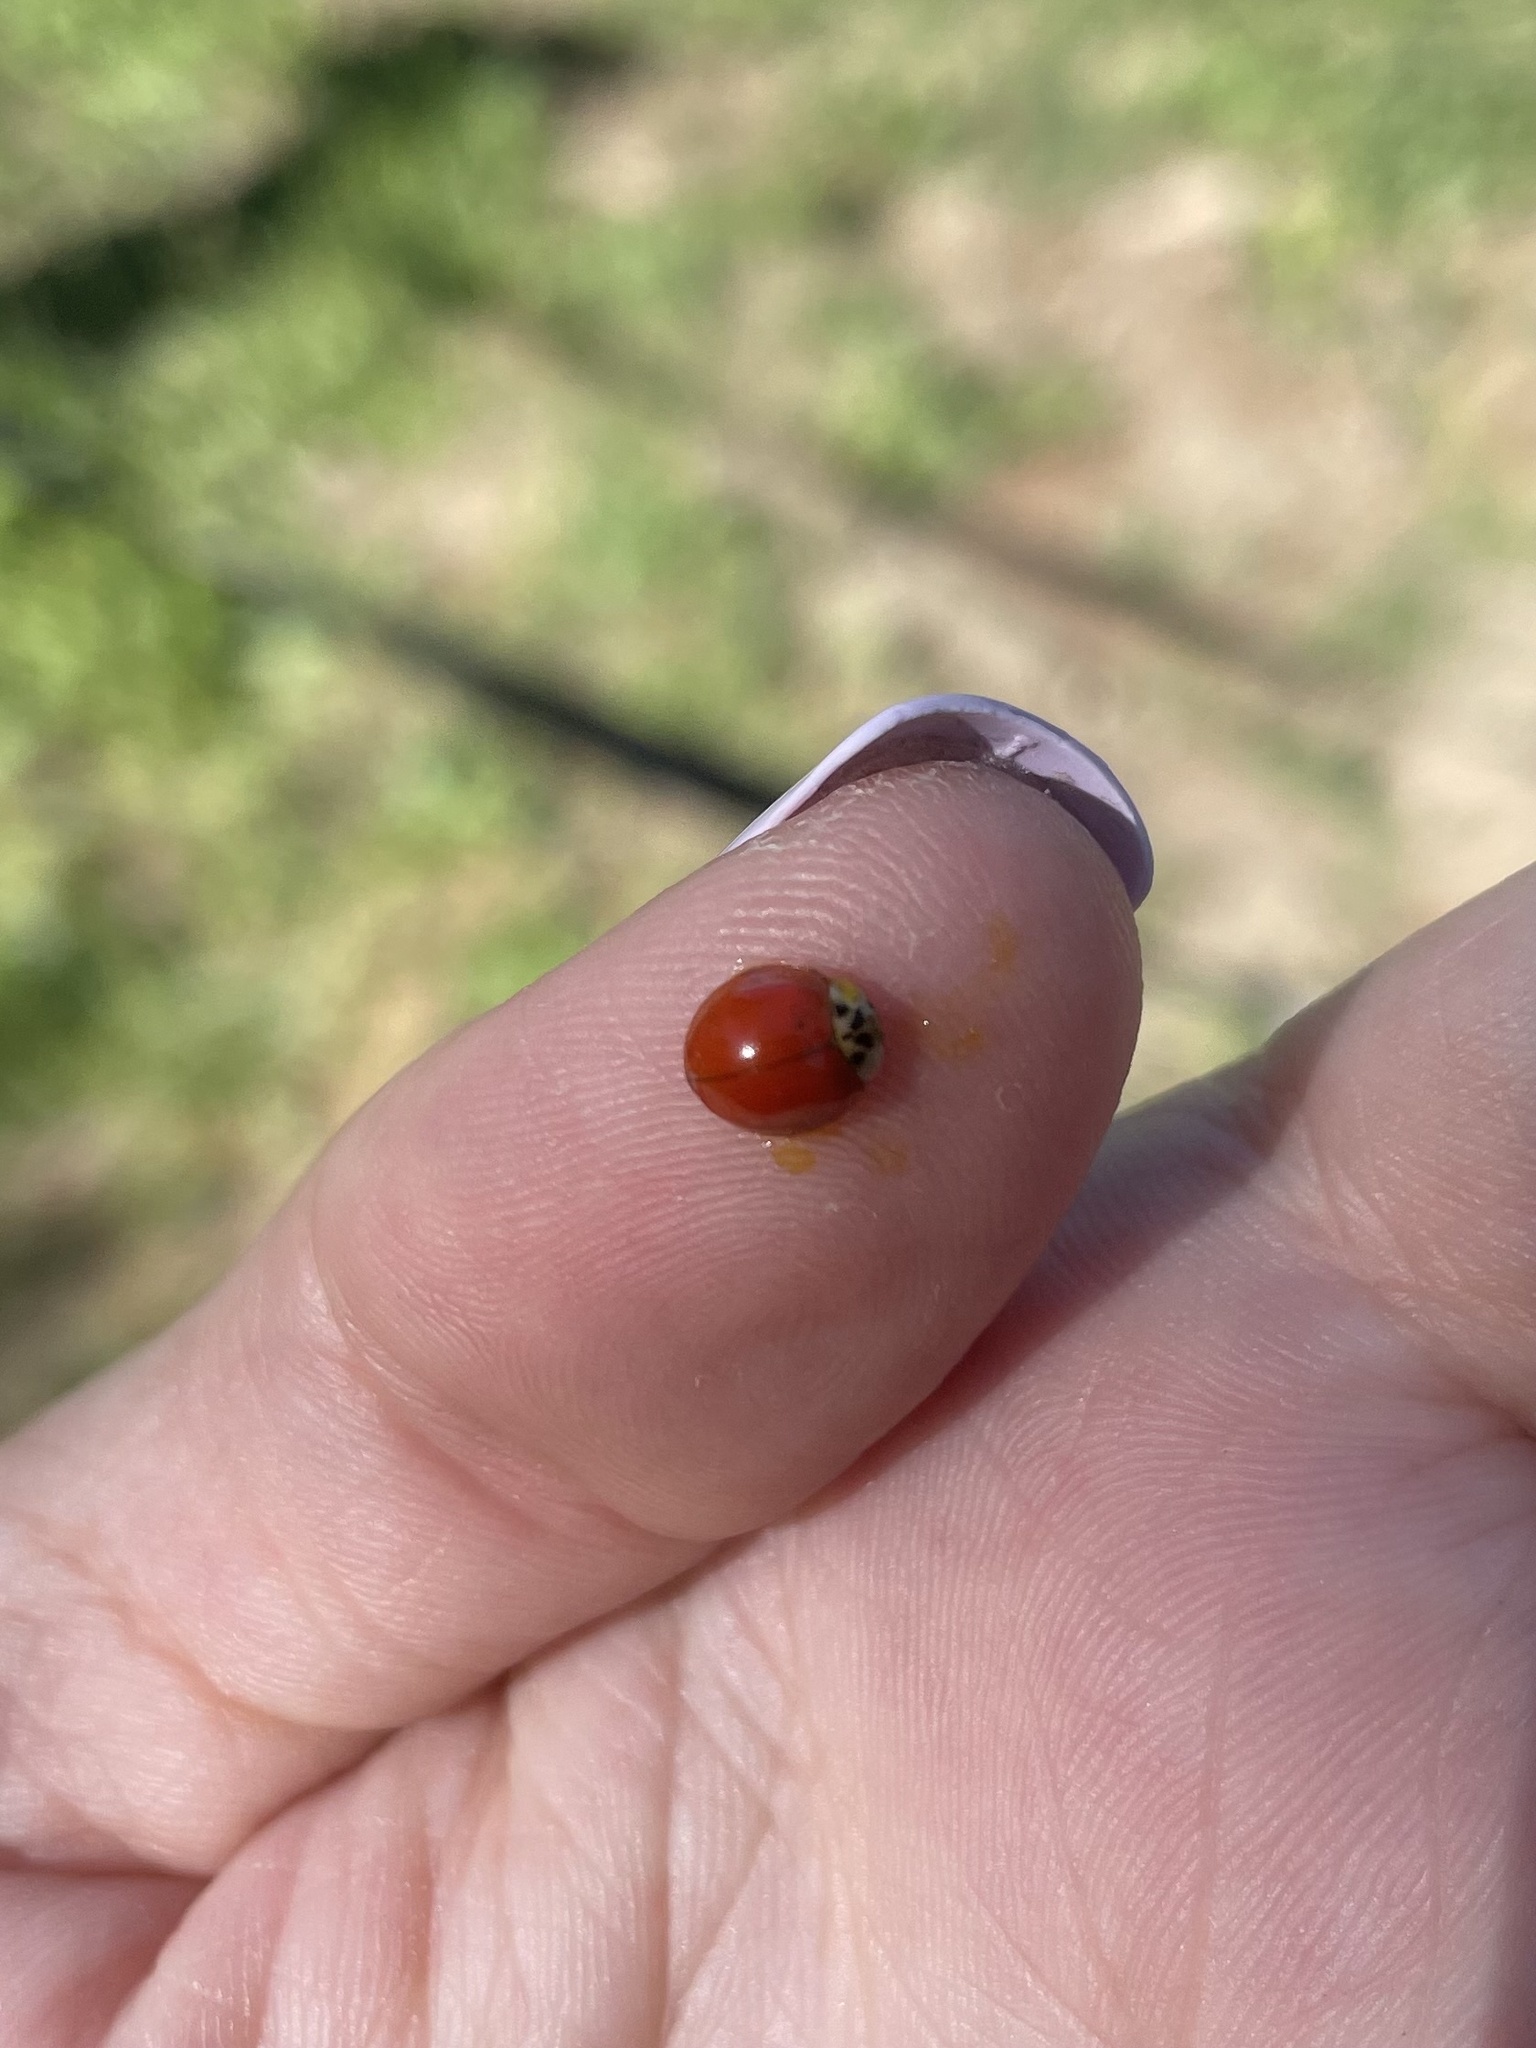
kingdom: Animalia
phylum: Arthropoda
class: Insecta
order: Coleoptera
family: Coccinellidae
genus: Harmonia
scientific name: Harmonia axyridis
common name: Harlequin ladybird
